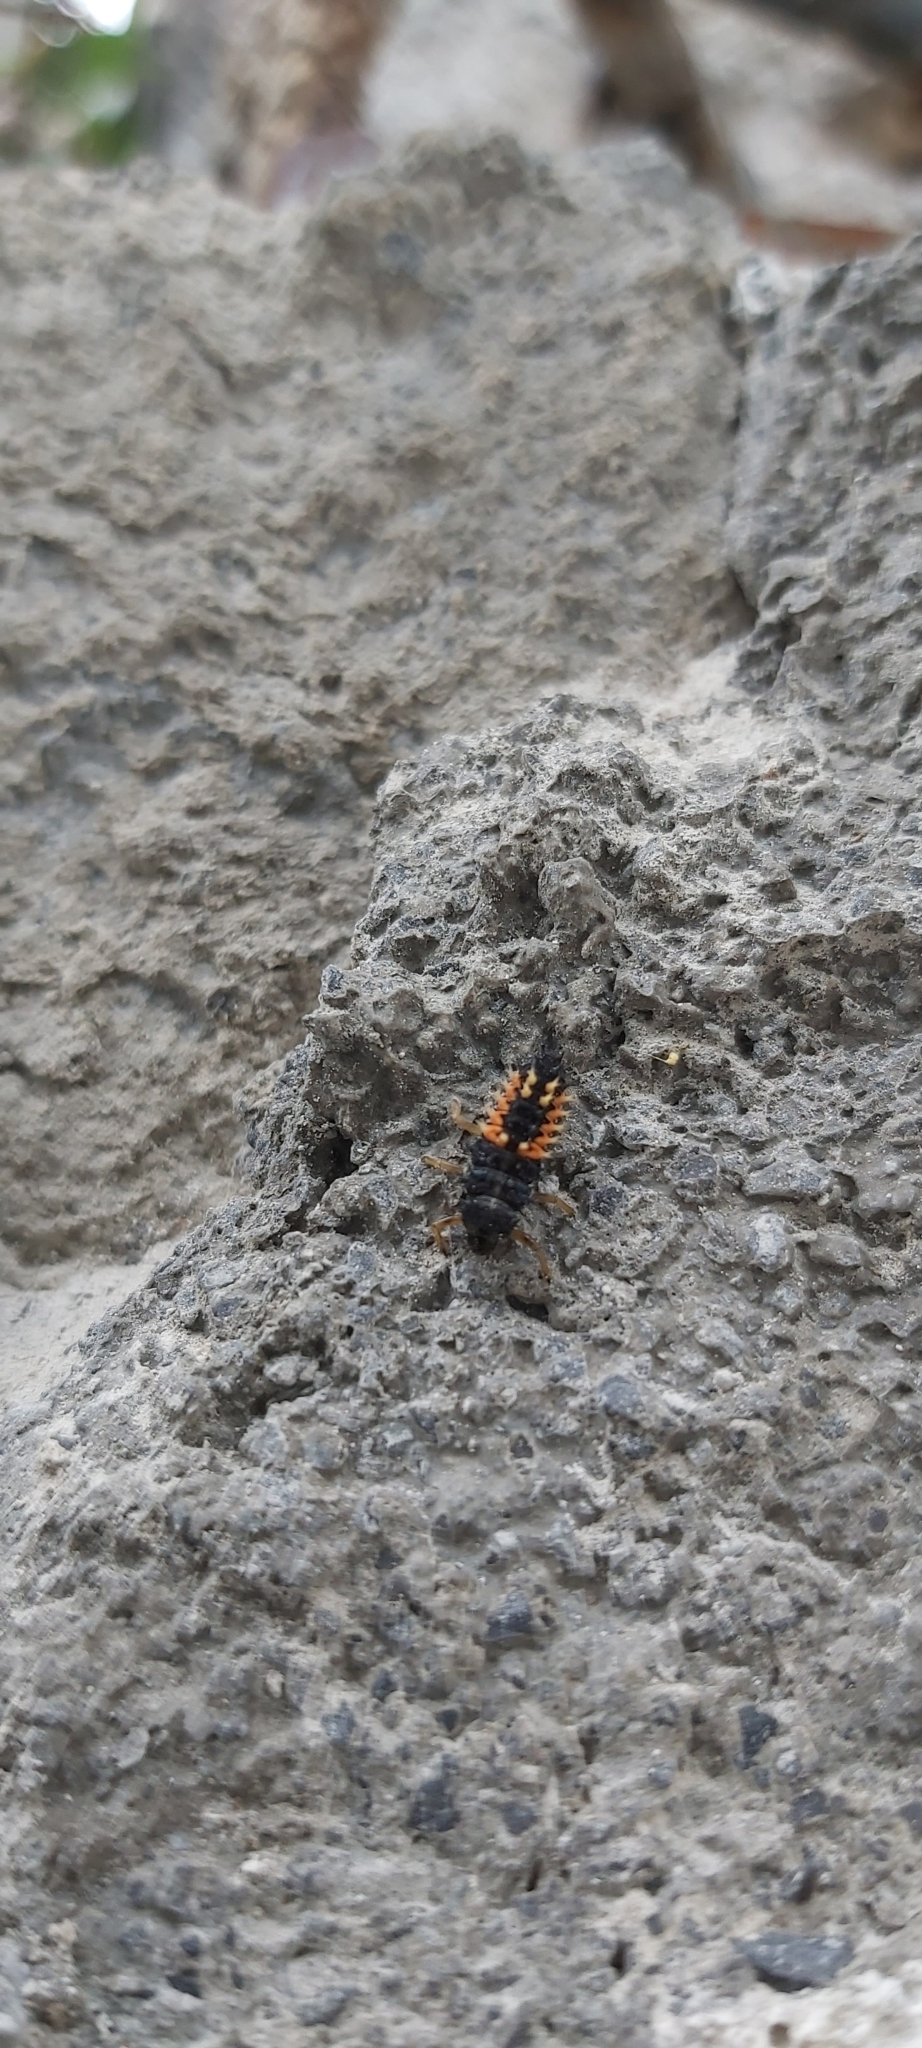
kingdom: Animalia
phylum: Arthropoda
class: Insecta
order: Coleoptera
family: Coccinellidae
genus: Harmonia
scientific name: Harmonia axyridis
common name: Harlequin ladybird
